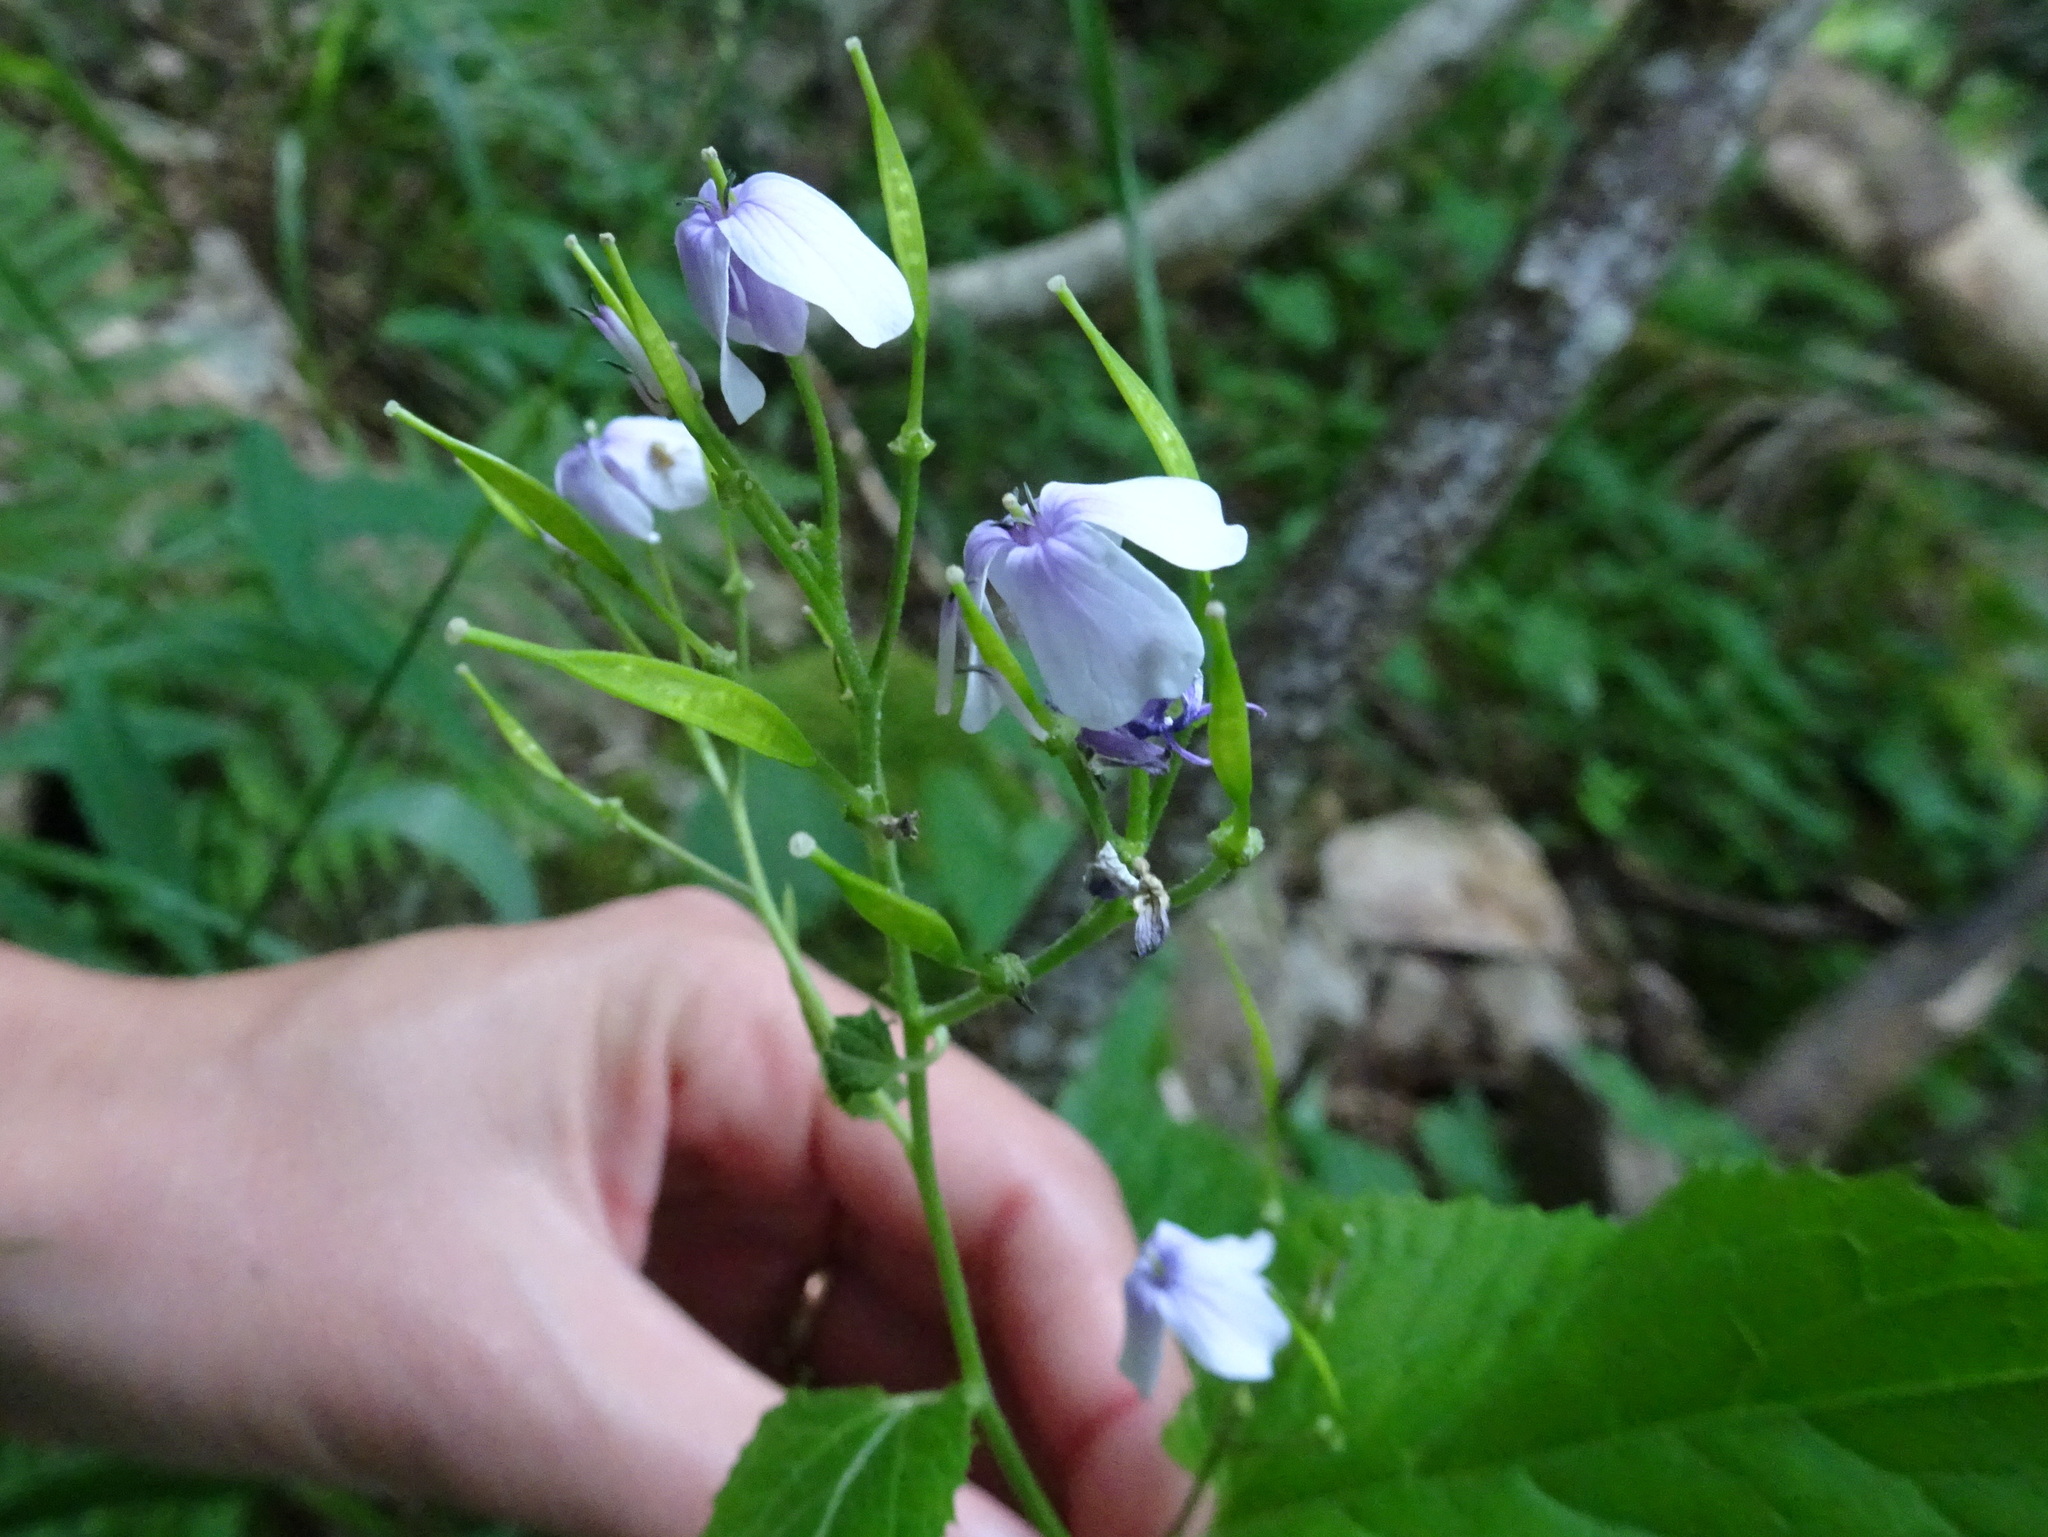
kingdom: Plantae
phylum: Tracheophyta
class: Magnoliopsida
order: Brassicales
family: Brassicaceae
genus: Lunaria
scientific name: Lunaria rediviva
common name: Perennial honesty
